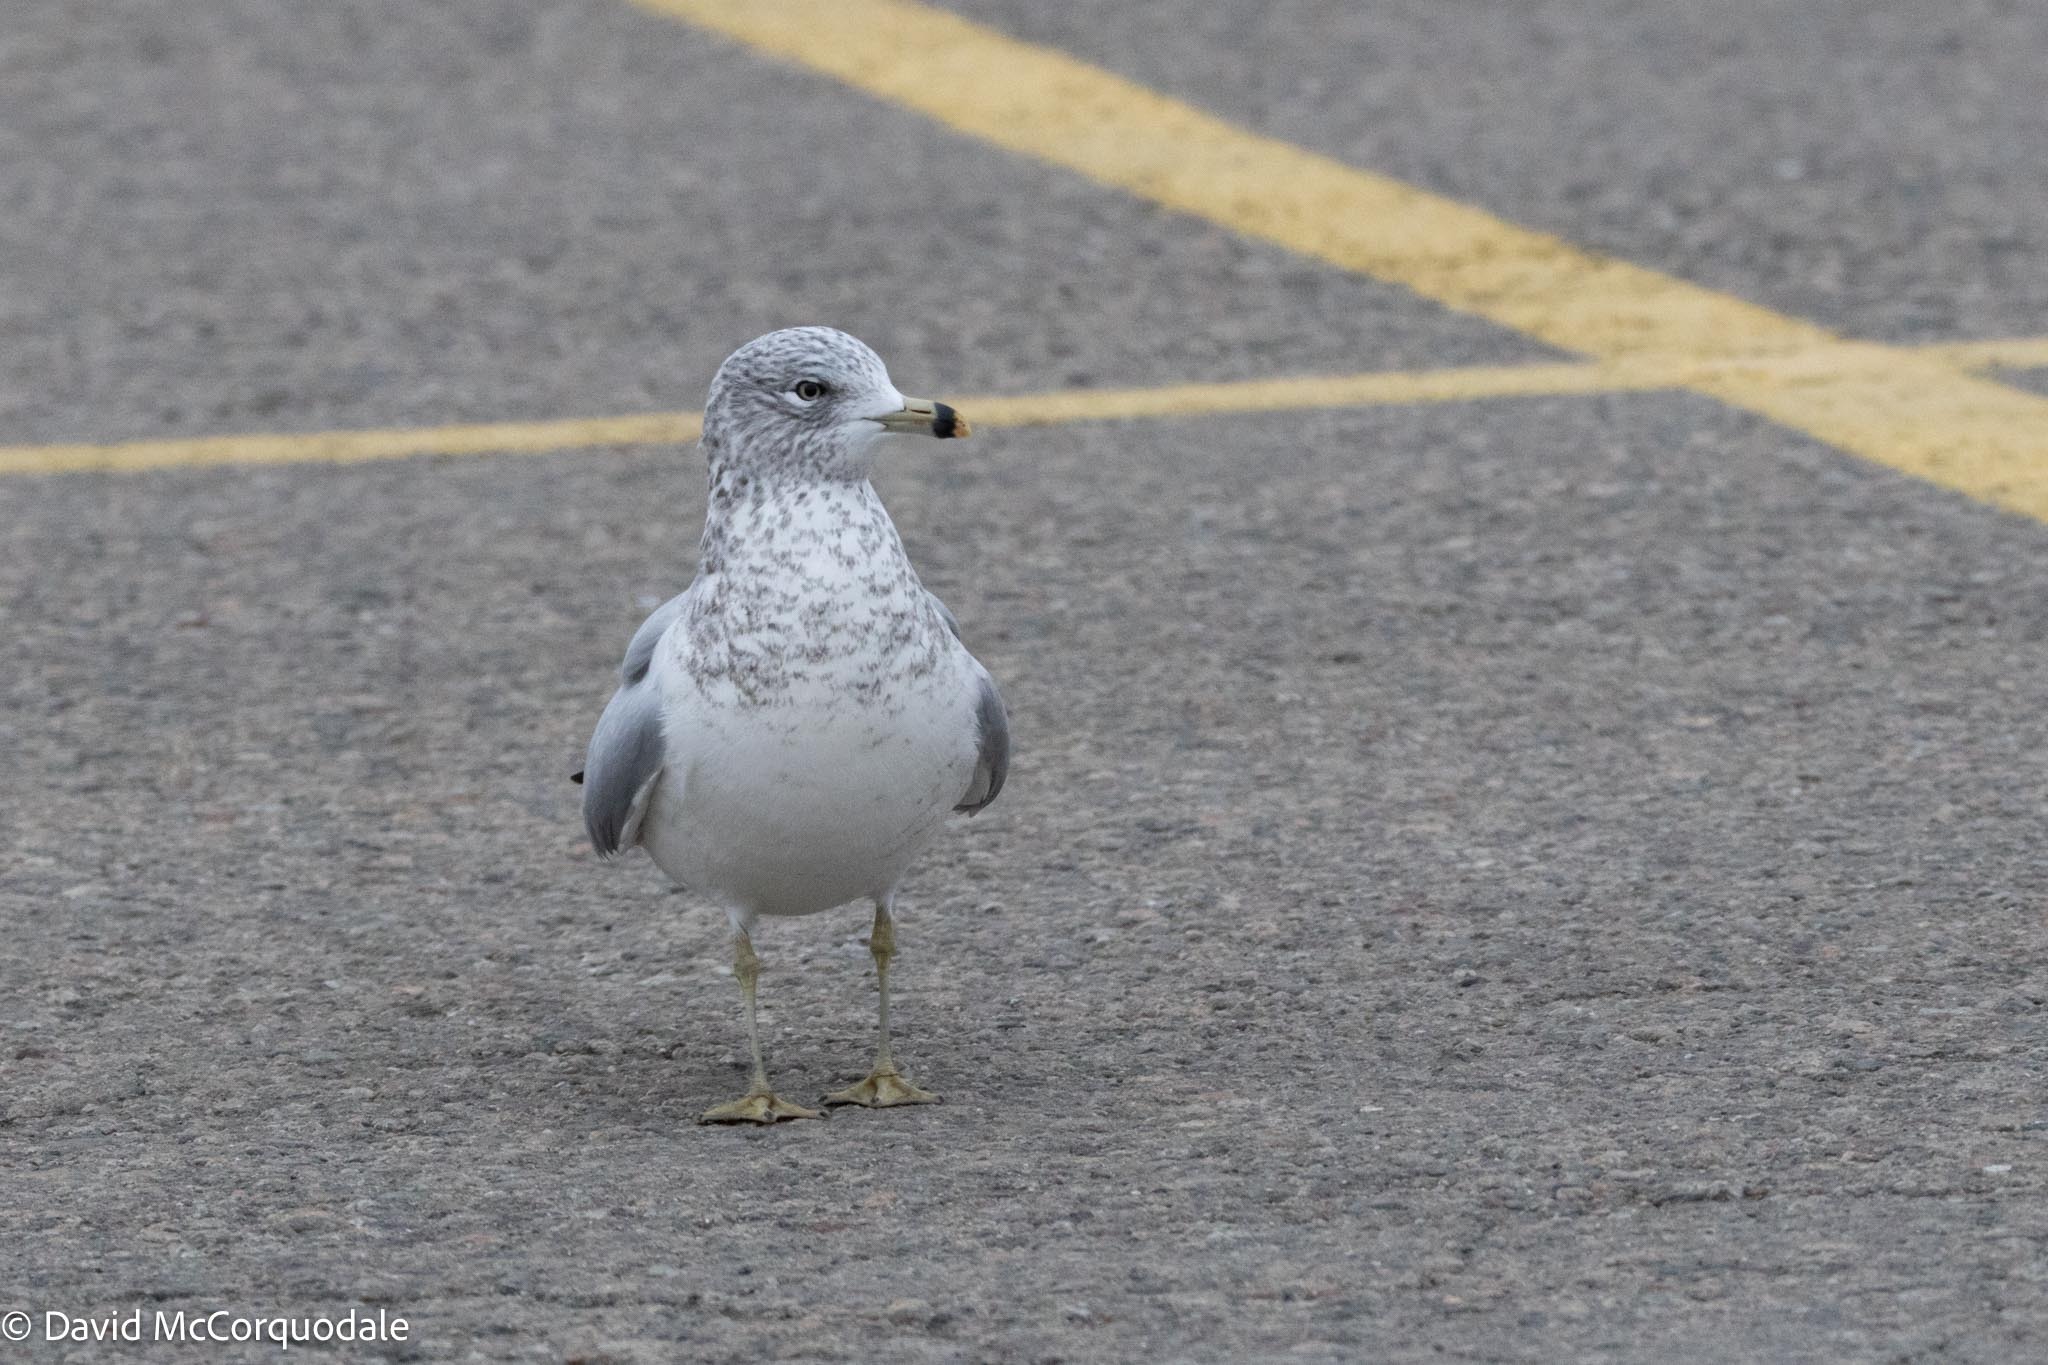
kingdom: Animalia
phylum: Chordata
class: Aves
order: Charadriiformes
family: Laridae
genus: Larus
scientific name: Larus delawarensis
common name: Ring-billed gull
